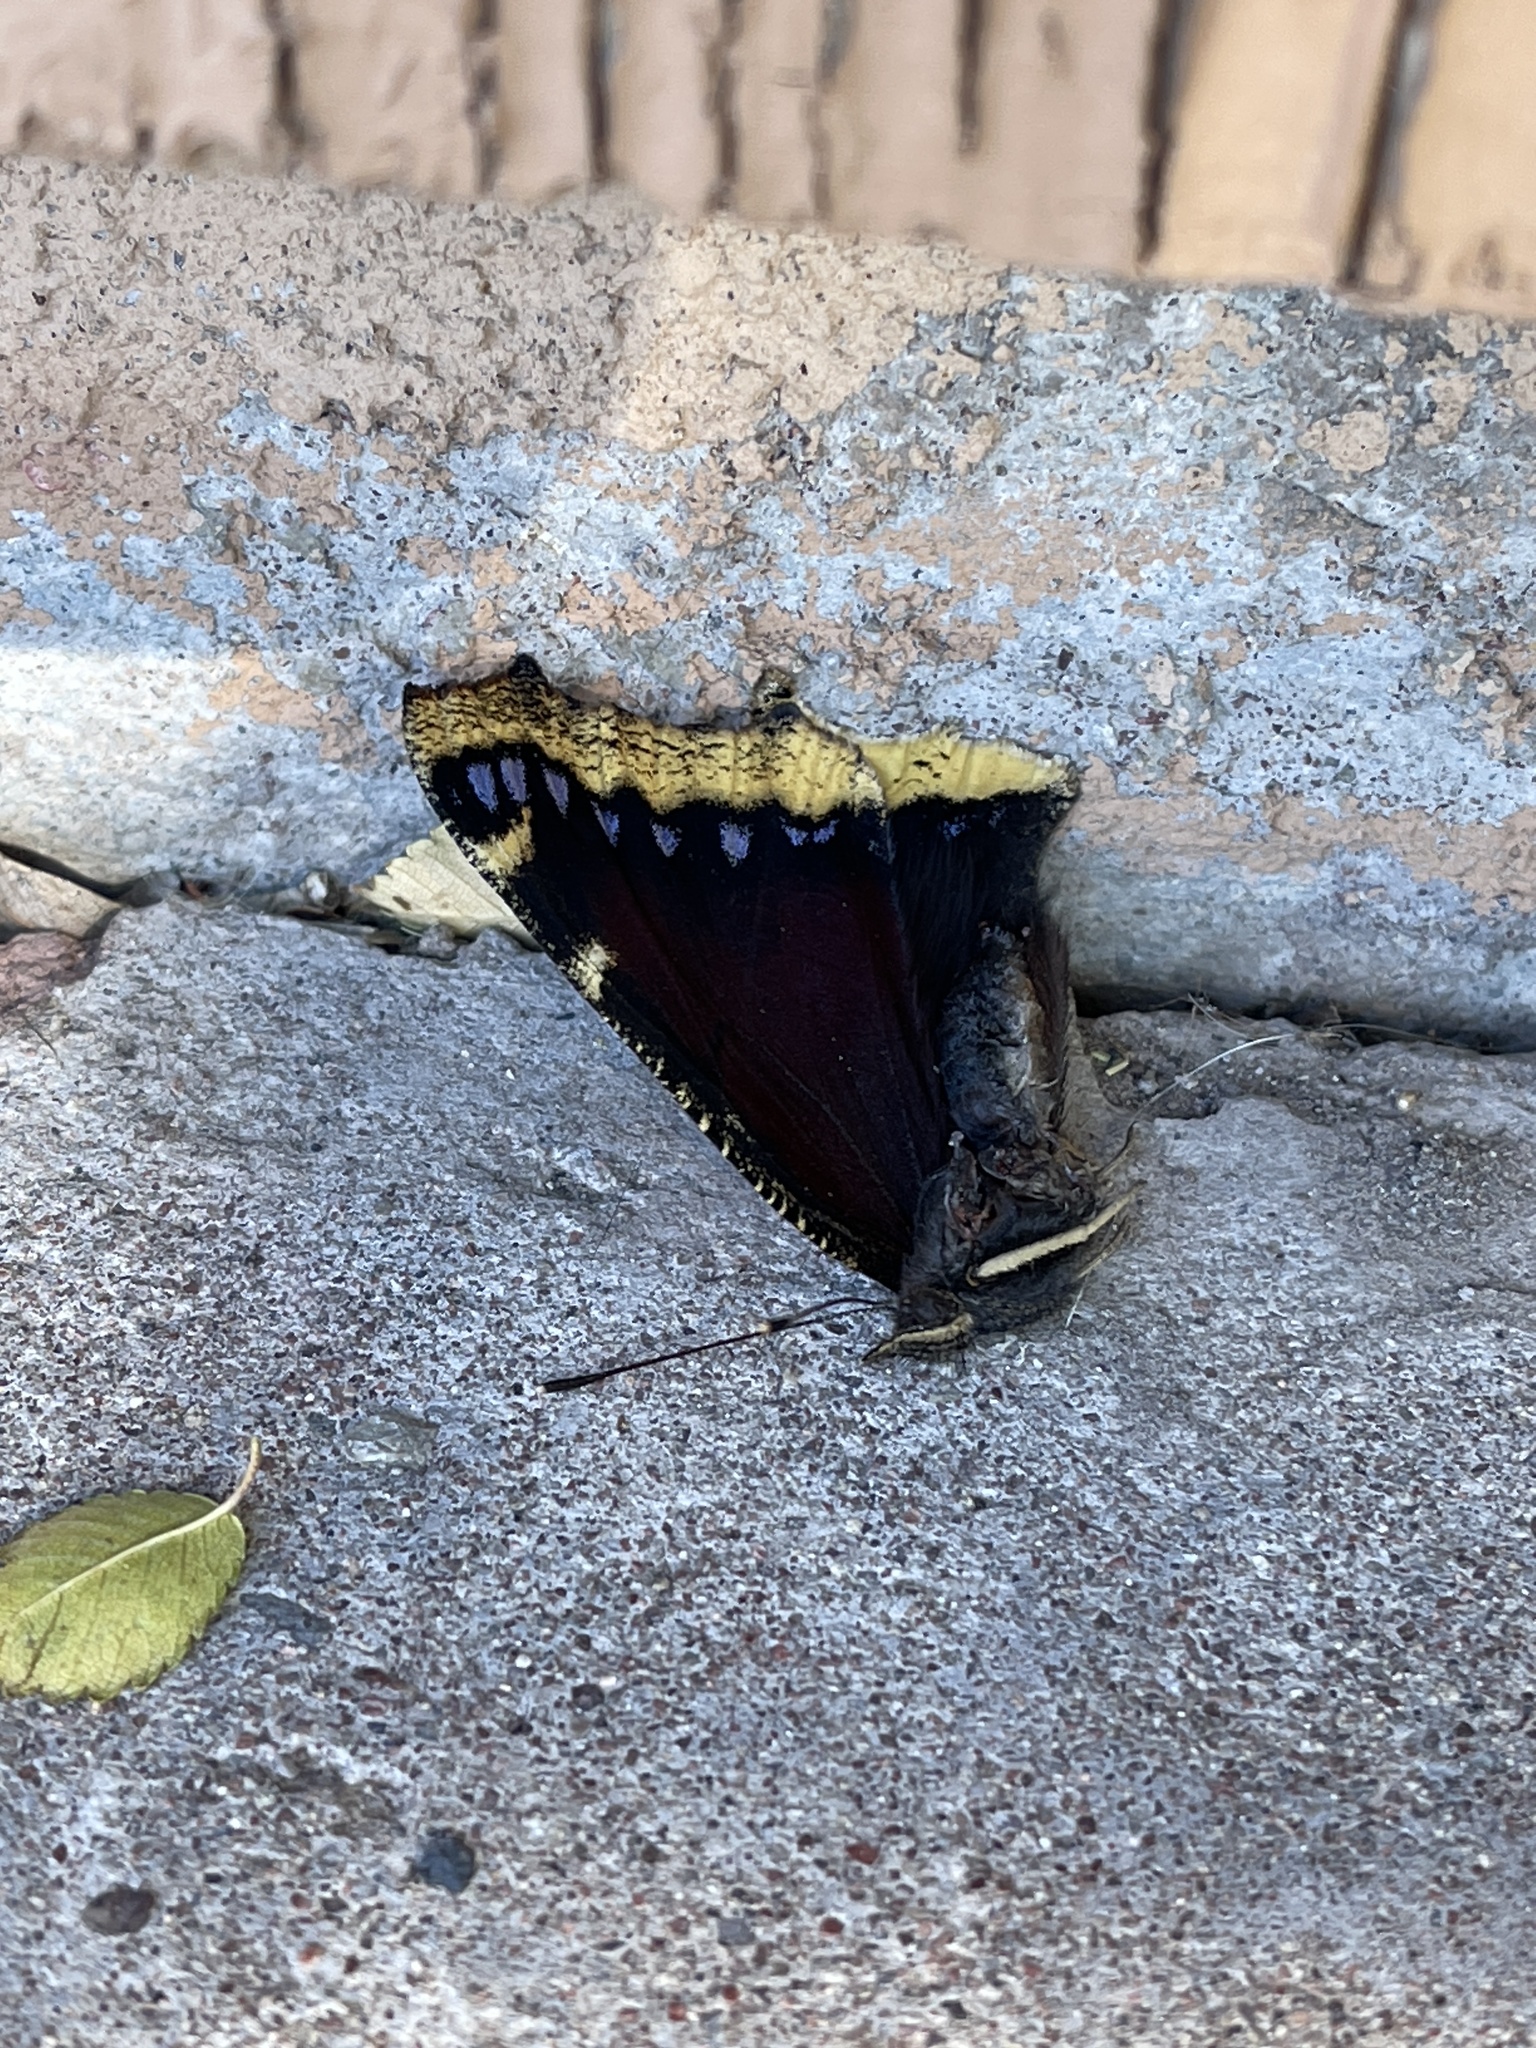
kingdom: Animalia
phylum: Arthropoda
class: Insecta
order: Lepidoptera
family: Nymphalidae
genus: Nymphalis
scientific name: Nymphalis antiopa
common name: Camberwell beauty
